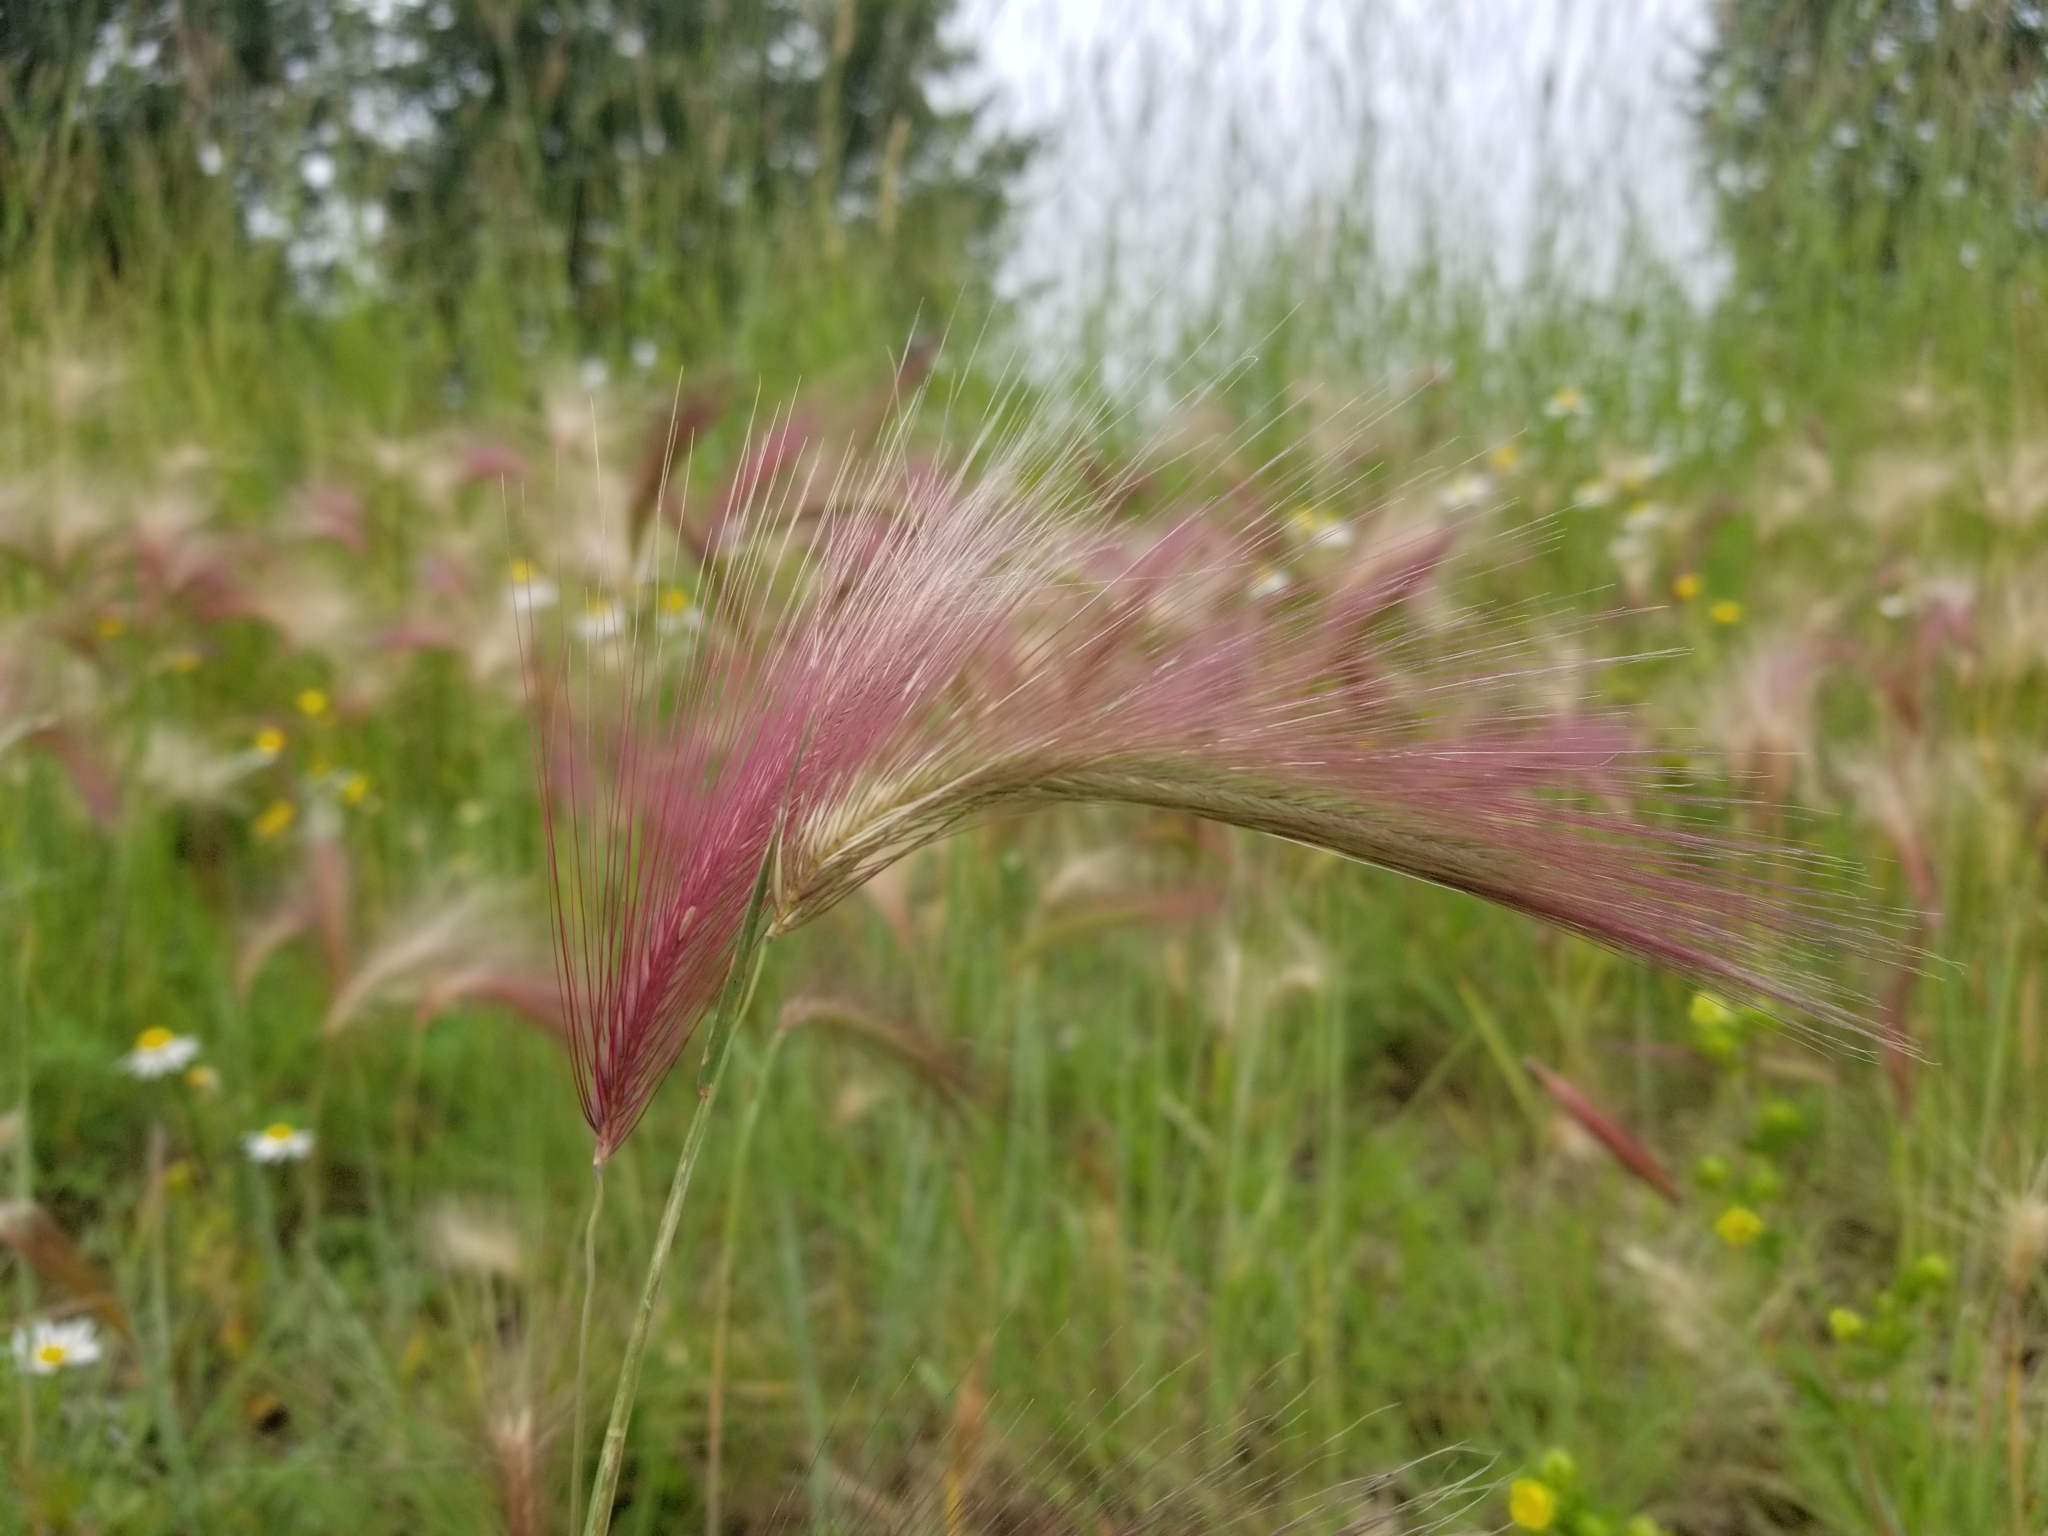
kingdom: Plantae
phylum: Tracheophyta
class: Liliopsida
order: Poales
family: Poaceae
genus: Hordeum
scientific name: Hordeum jubatum
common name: Foxtail barley
